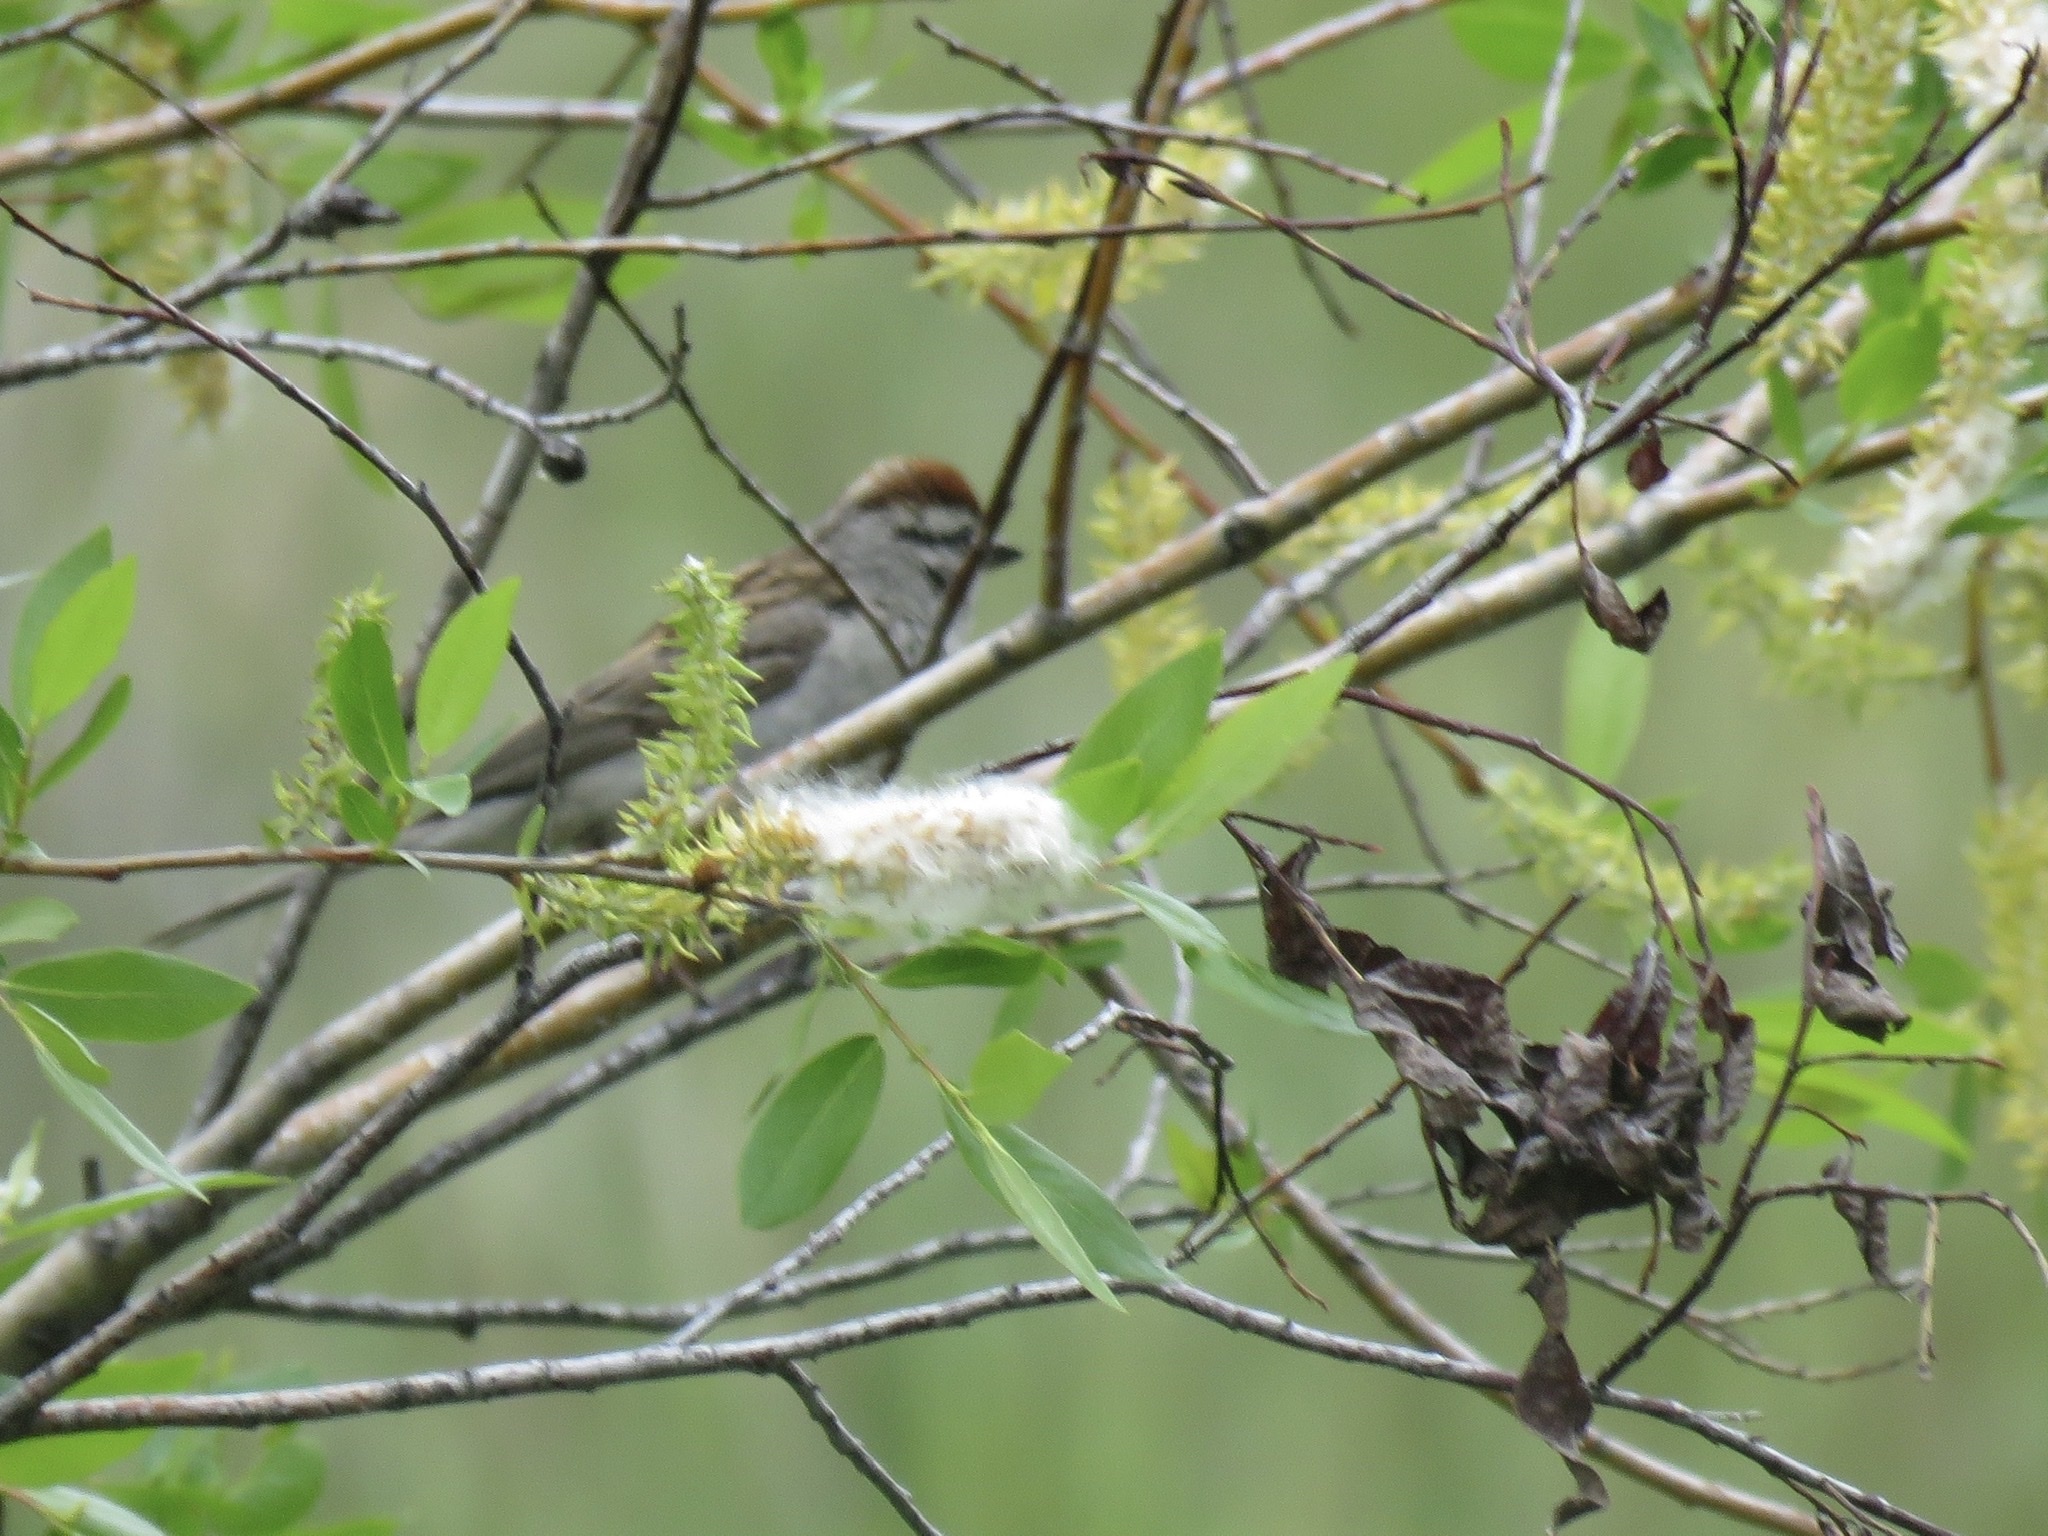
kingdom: Animalia
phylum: Chordata
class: Aves
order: Passeriformes
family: Passerellidae
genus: Spizella
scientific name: Spizella passerina
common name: Chipping sparrow
